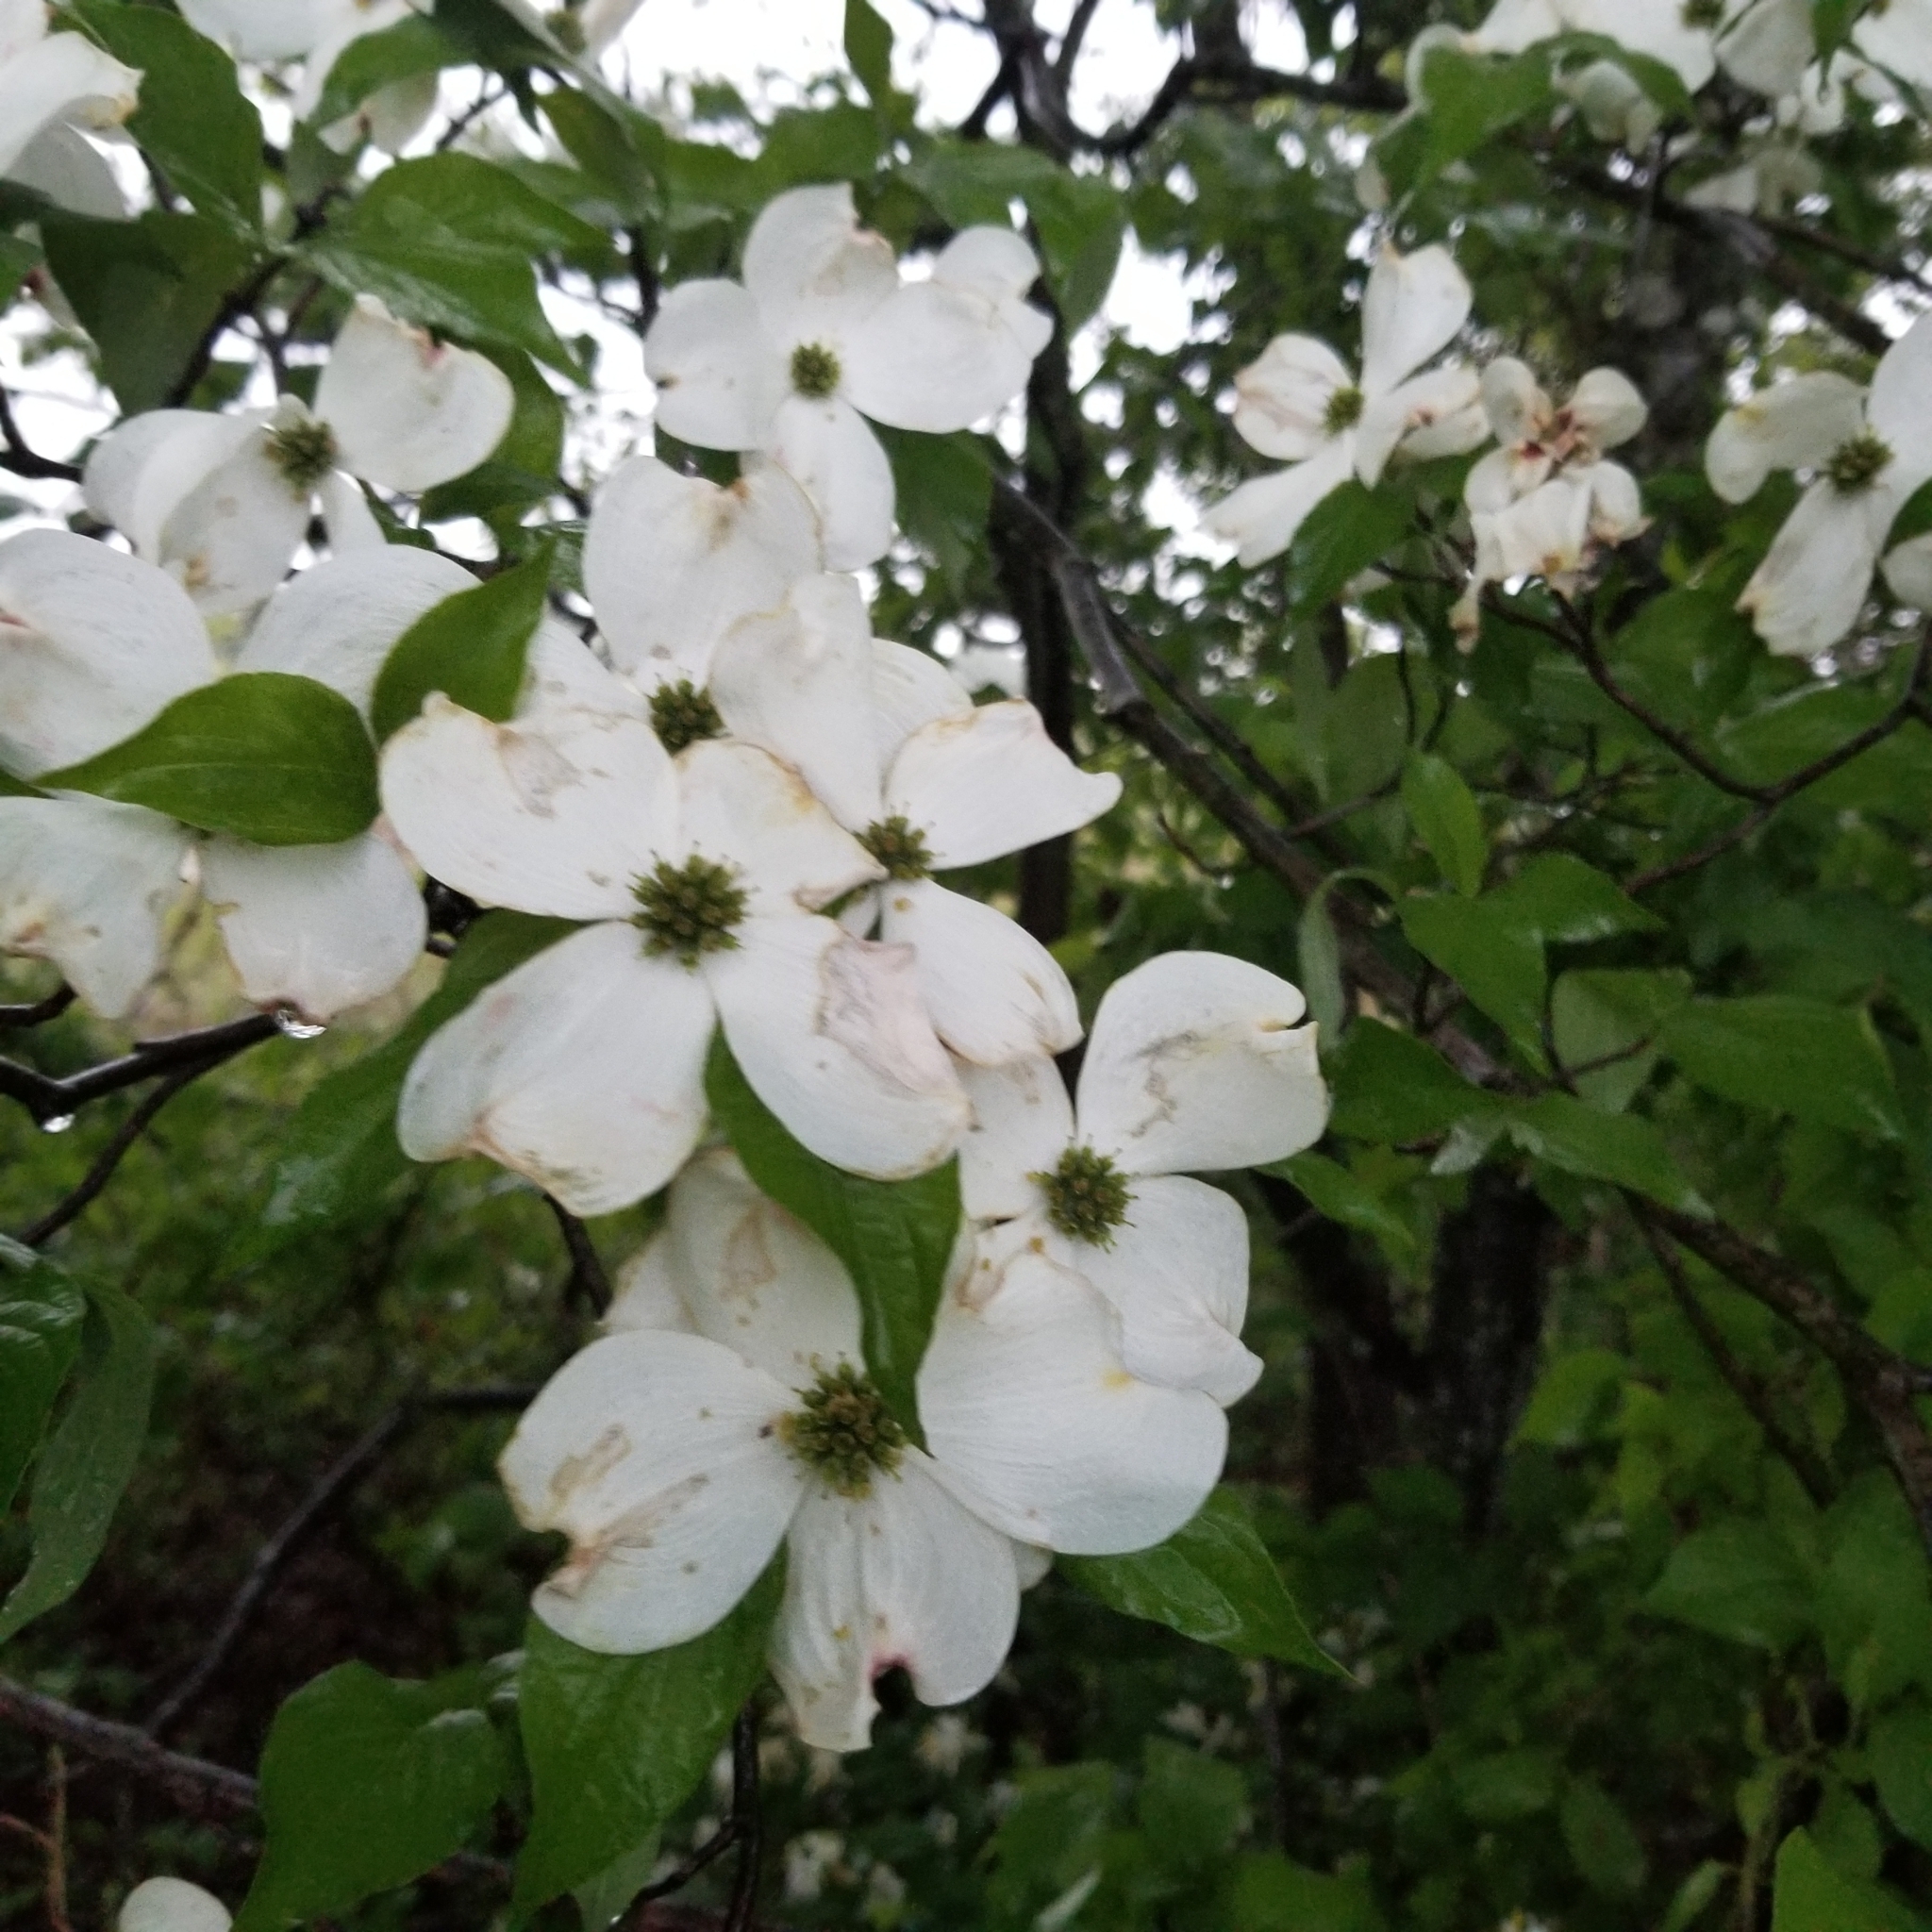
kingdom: Plantae
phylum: Tracheophyta
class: Magnoliopsida
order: Cornales
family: Cornaceae
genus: Cornus
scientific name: Cornus florida
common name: Flowering dogwood
